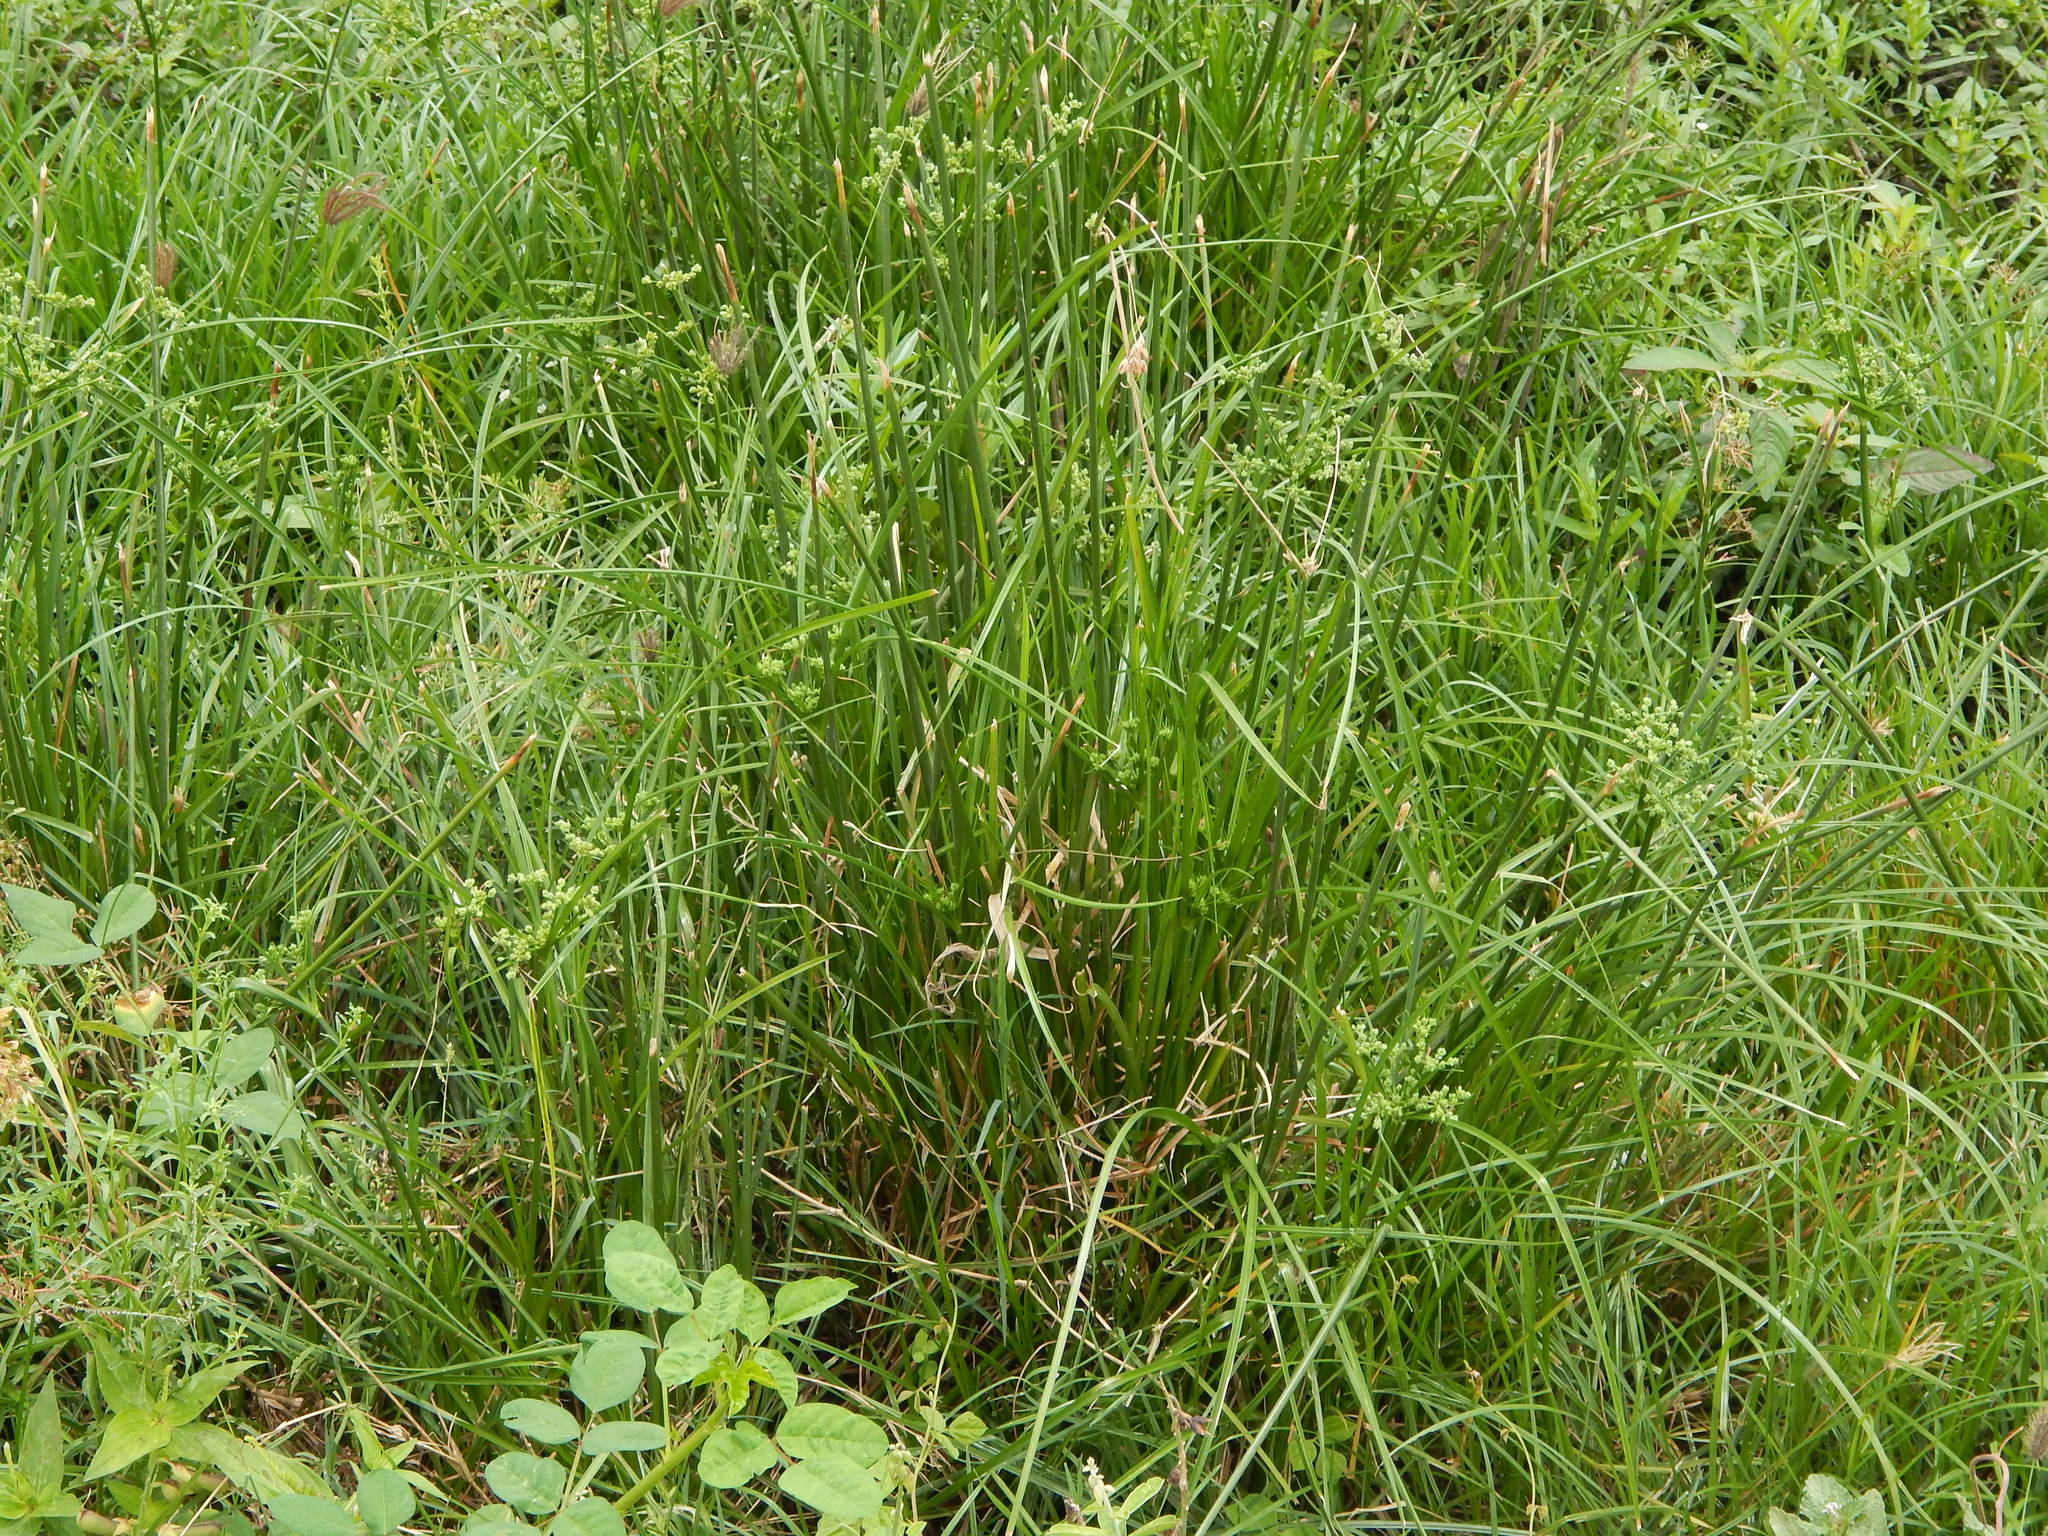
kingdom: Plantae
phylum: Tracheophyta
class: Liliopsida
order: Poales
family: Cyperaceae
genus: Cyperus
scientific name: Cyperus surinamensis
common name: Tropical flat sedge
